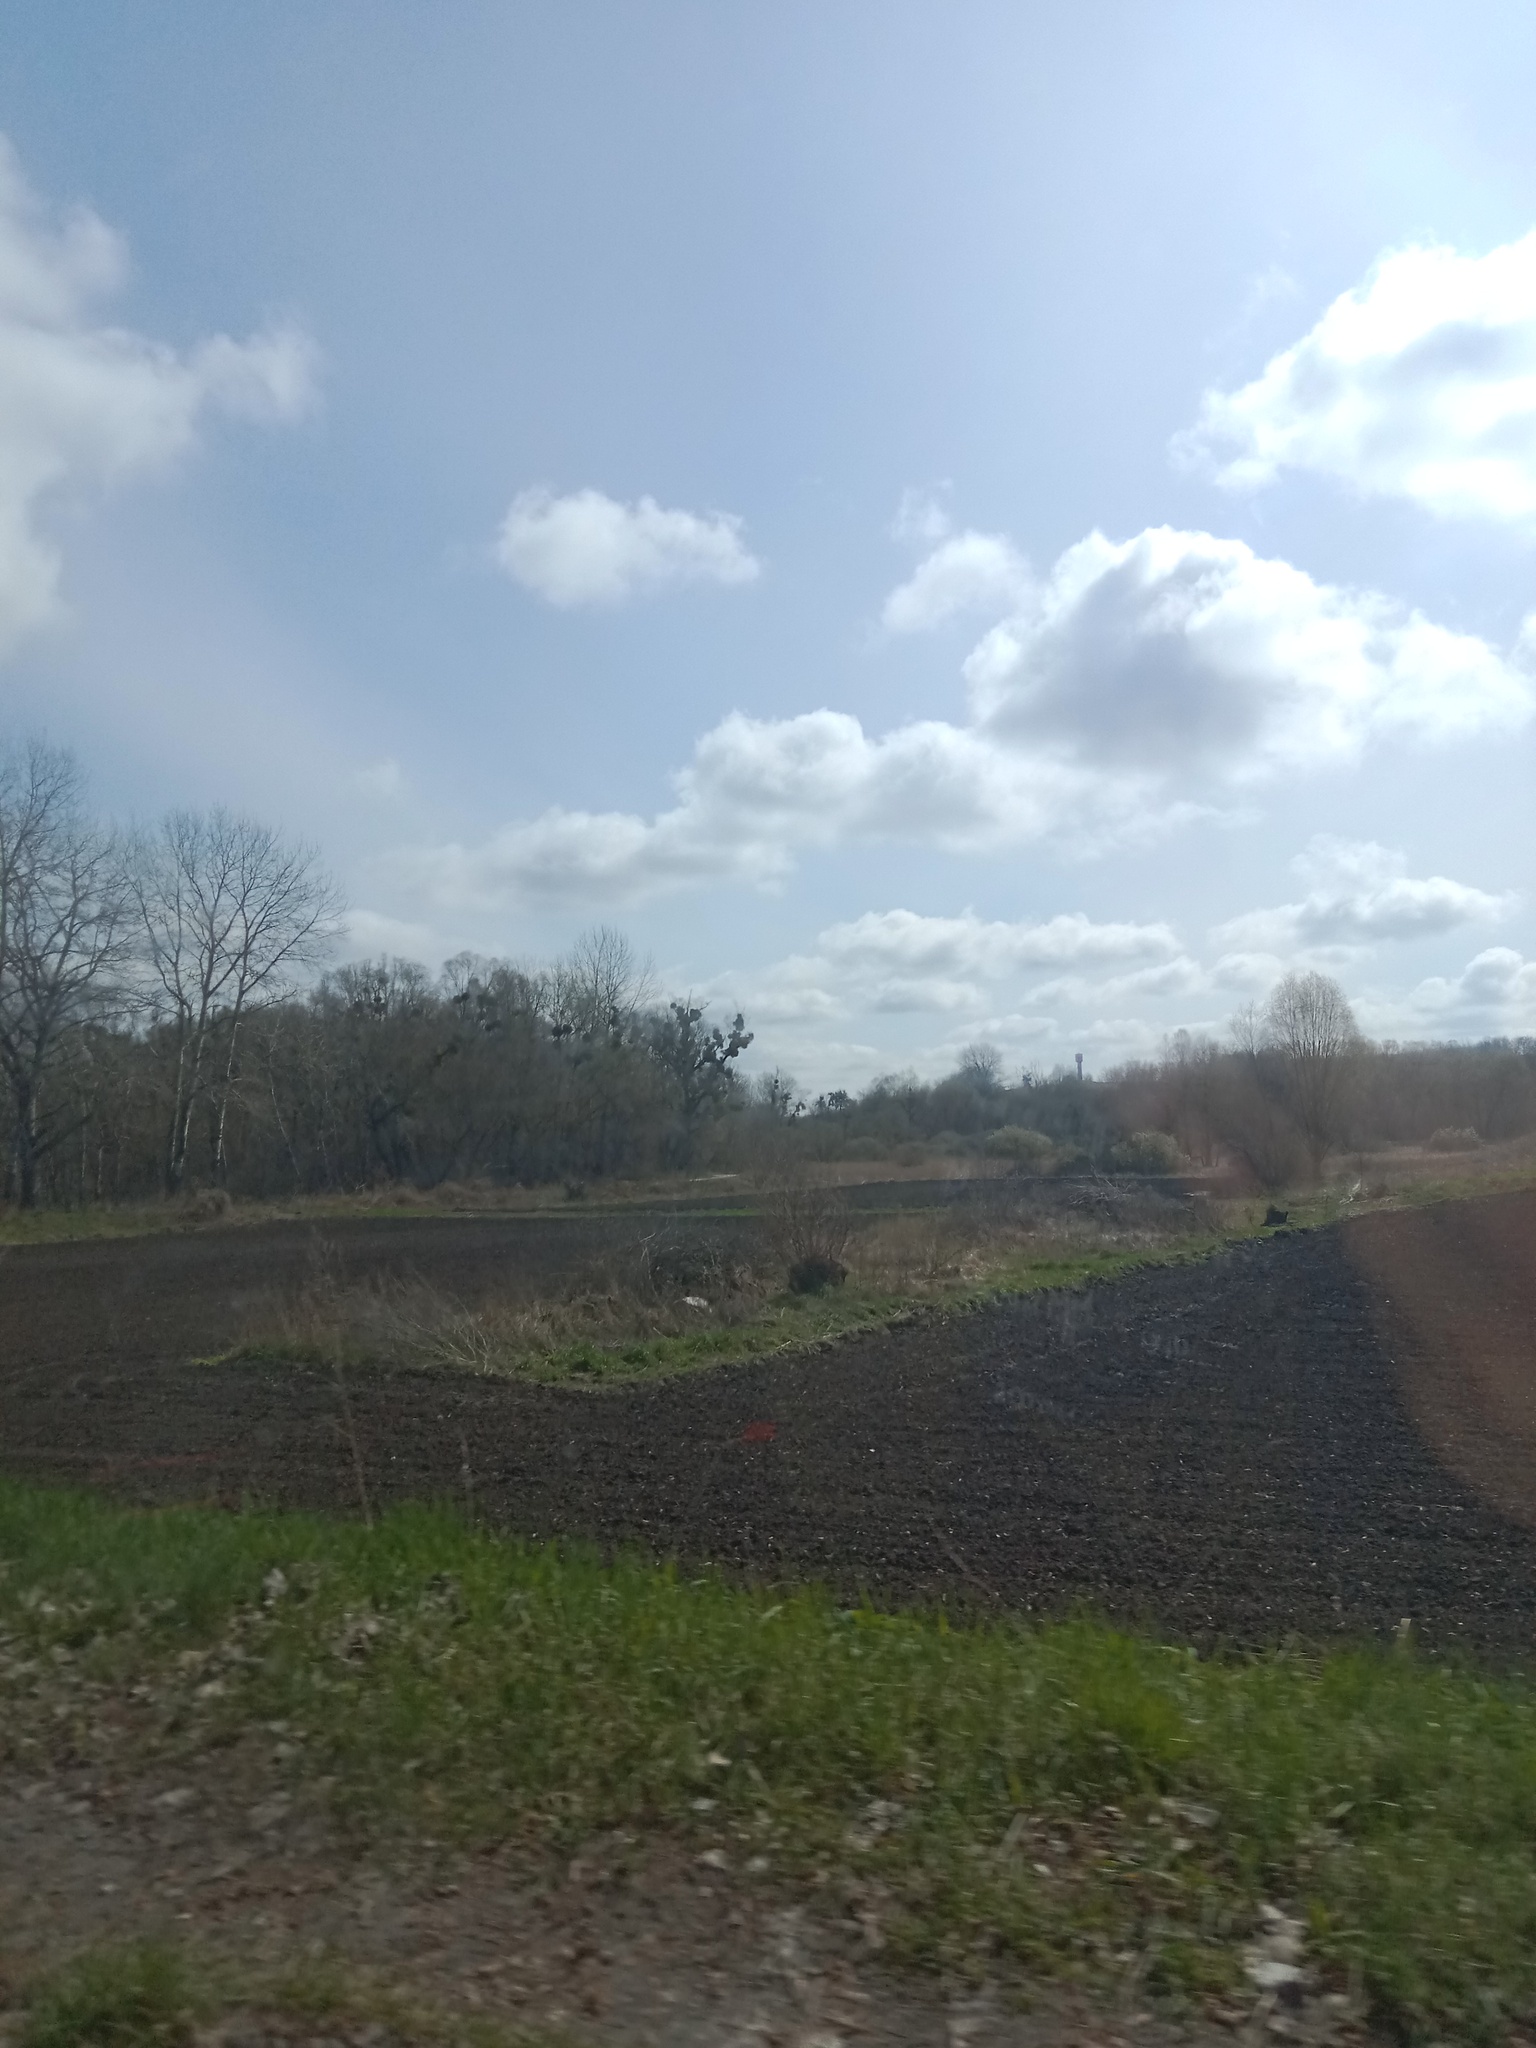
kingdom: Plantae
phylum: Tracheophyta
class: Magnoliopsida
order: Santalales
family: Viscaceae
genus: Viscum
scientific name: Viscum album
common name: Mistletoe
